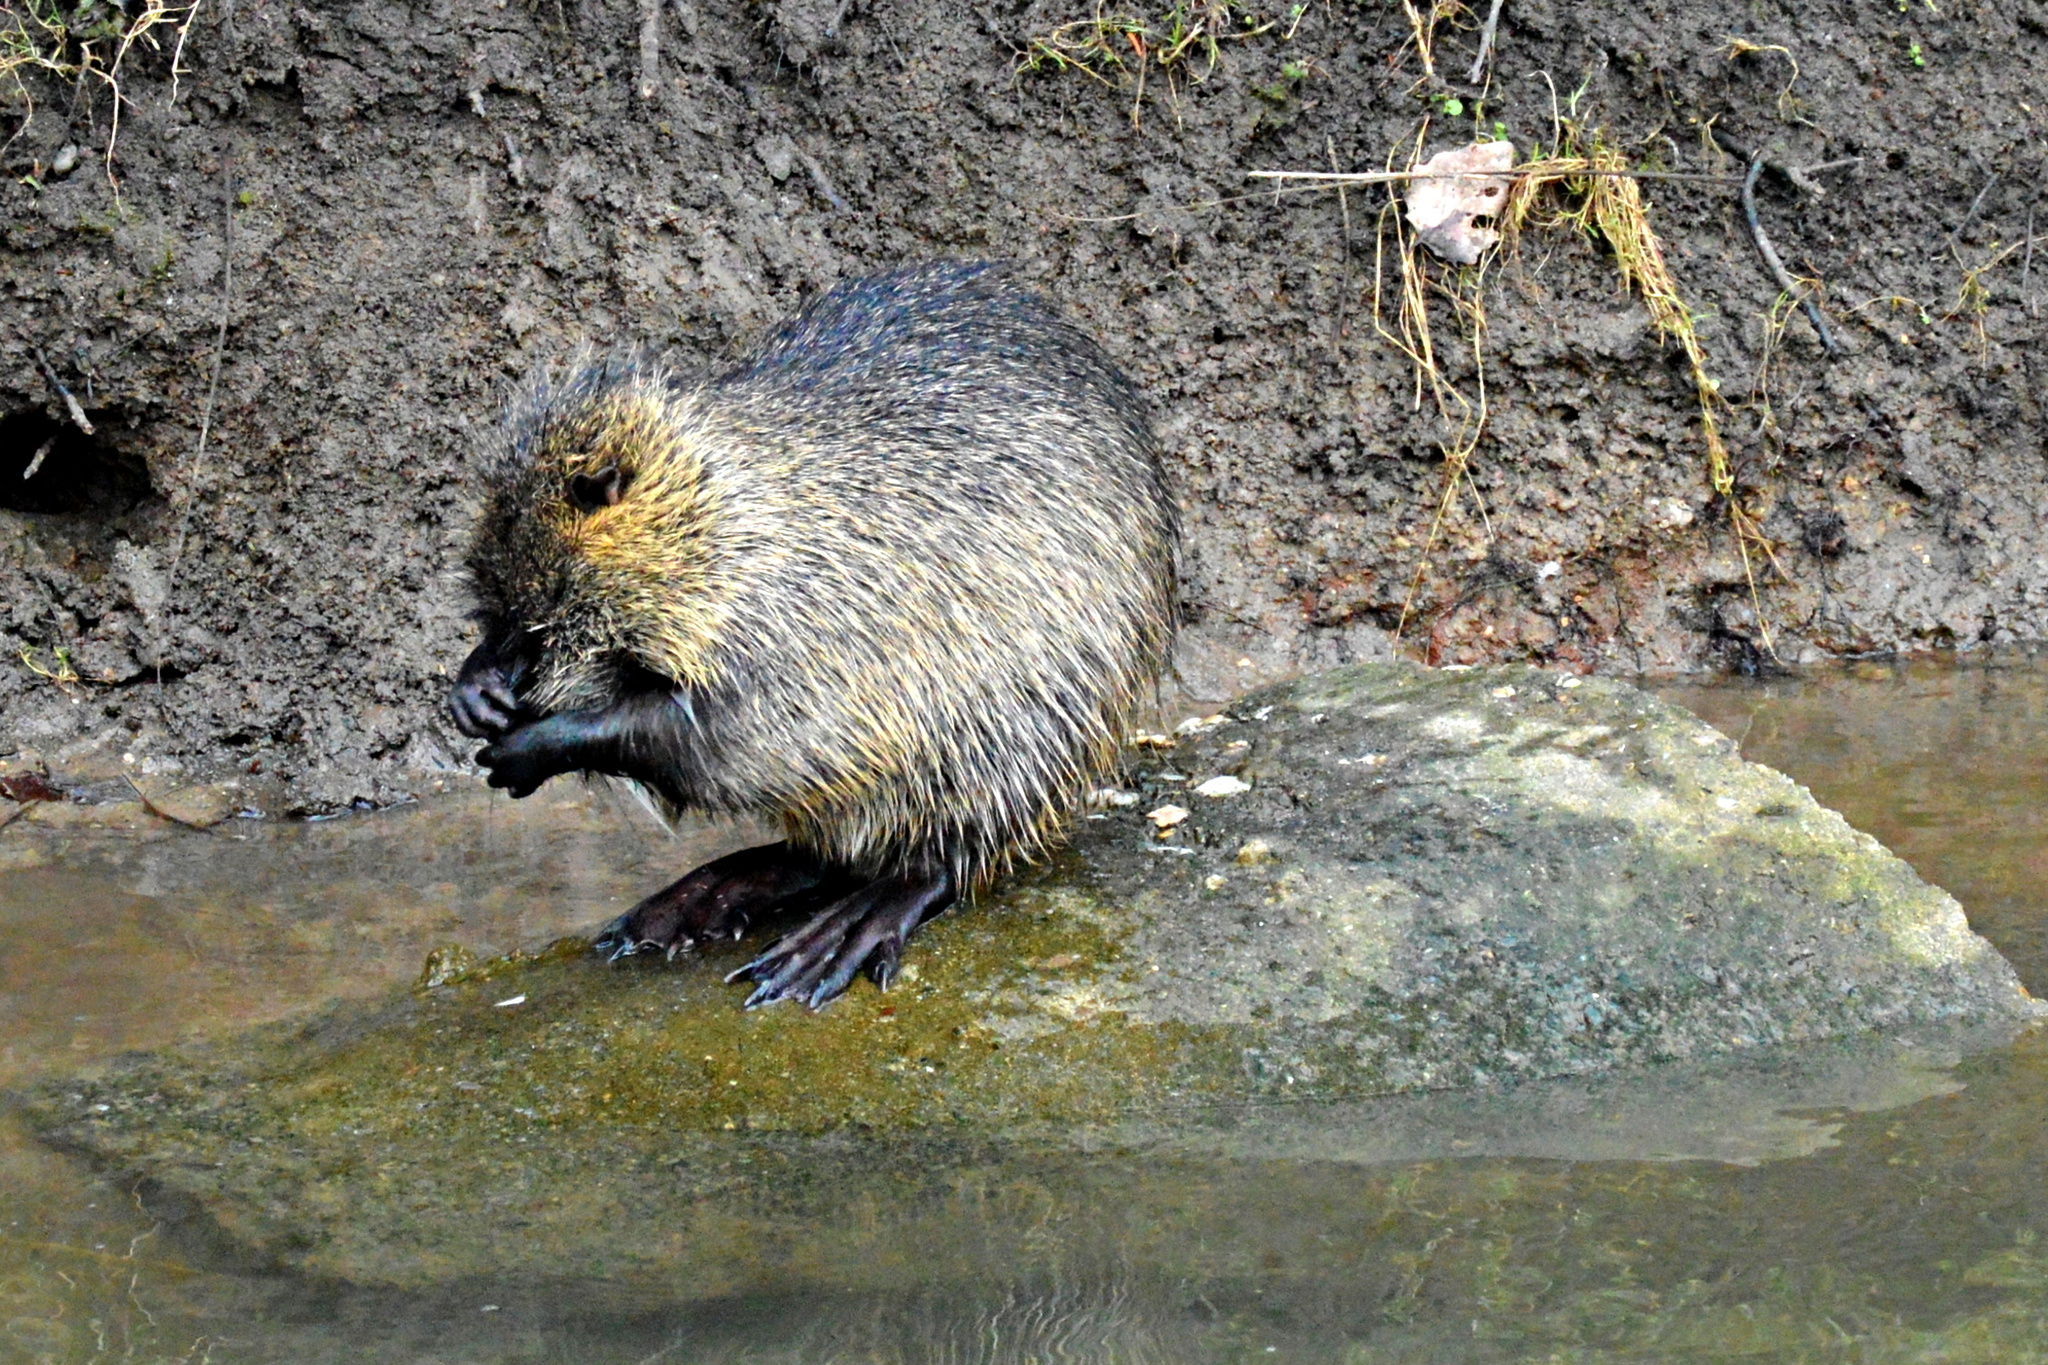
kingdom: Animalia
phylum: Chordata
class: Mammalia
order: Rodentia
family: Myocastoridae
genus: Myocastor
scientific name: Myocastor coypus
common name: Coypu
